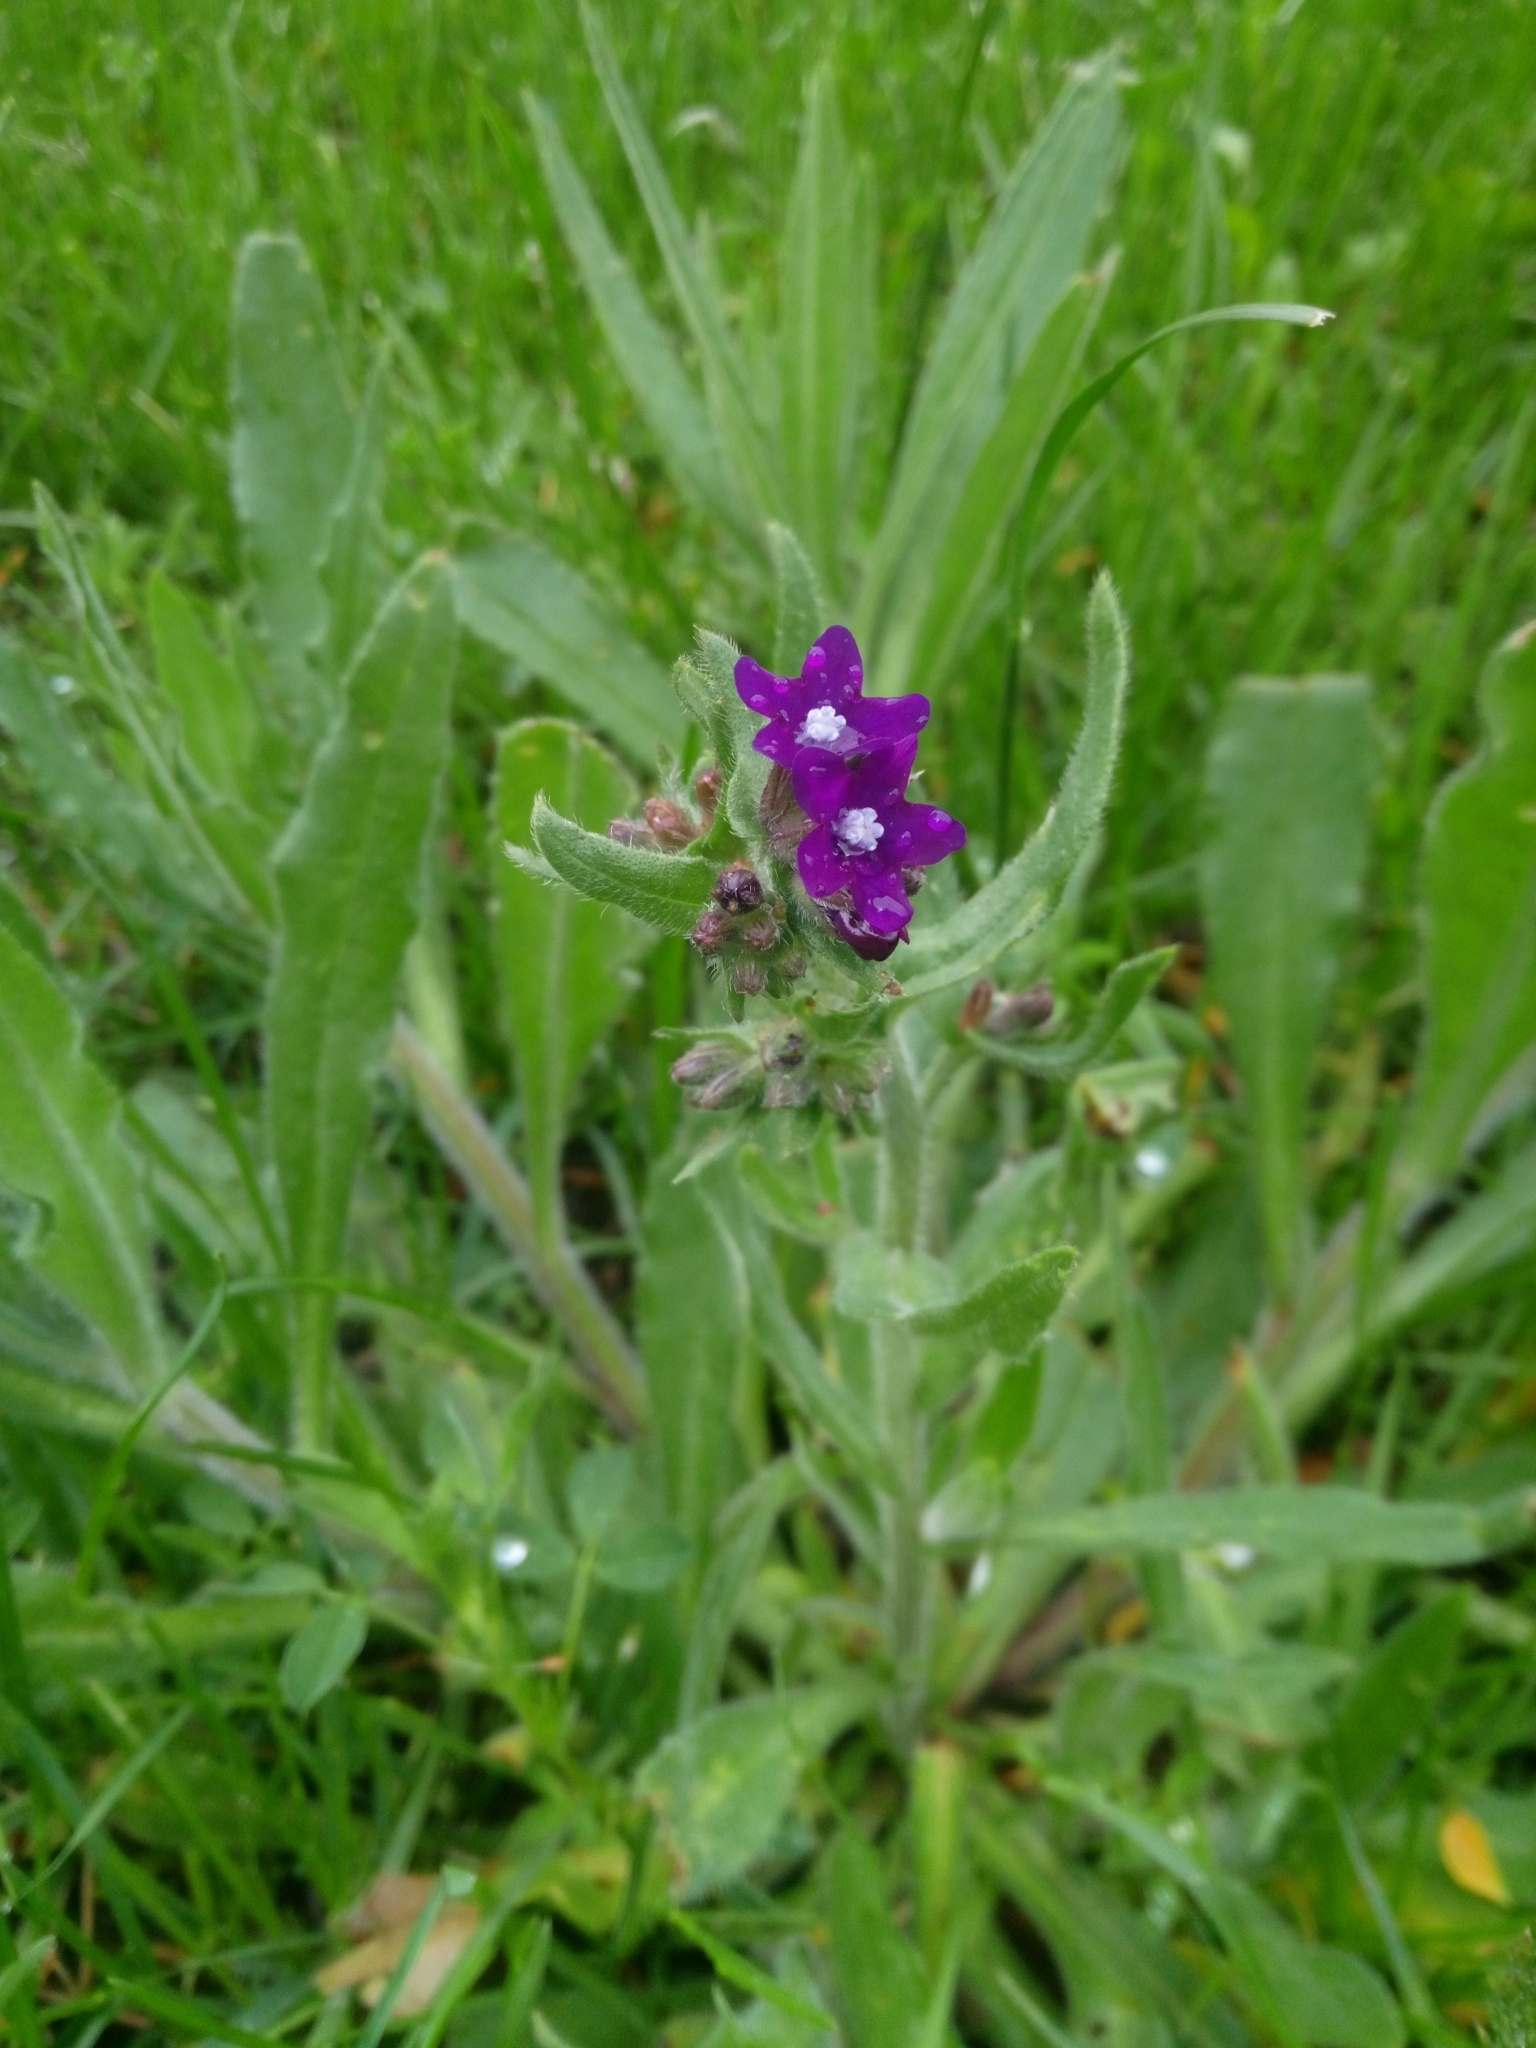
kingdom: Plantae
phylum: Tracheophyta
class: Magnoliopsida
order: Boraginales
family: Boraginaceae
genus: Anchusa
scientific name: Anchusa officinalis
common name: Alkanet
